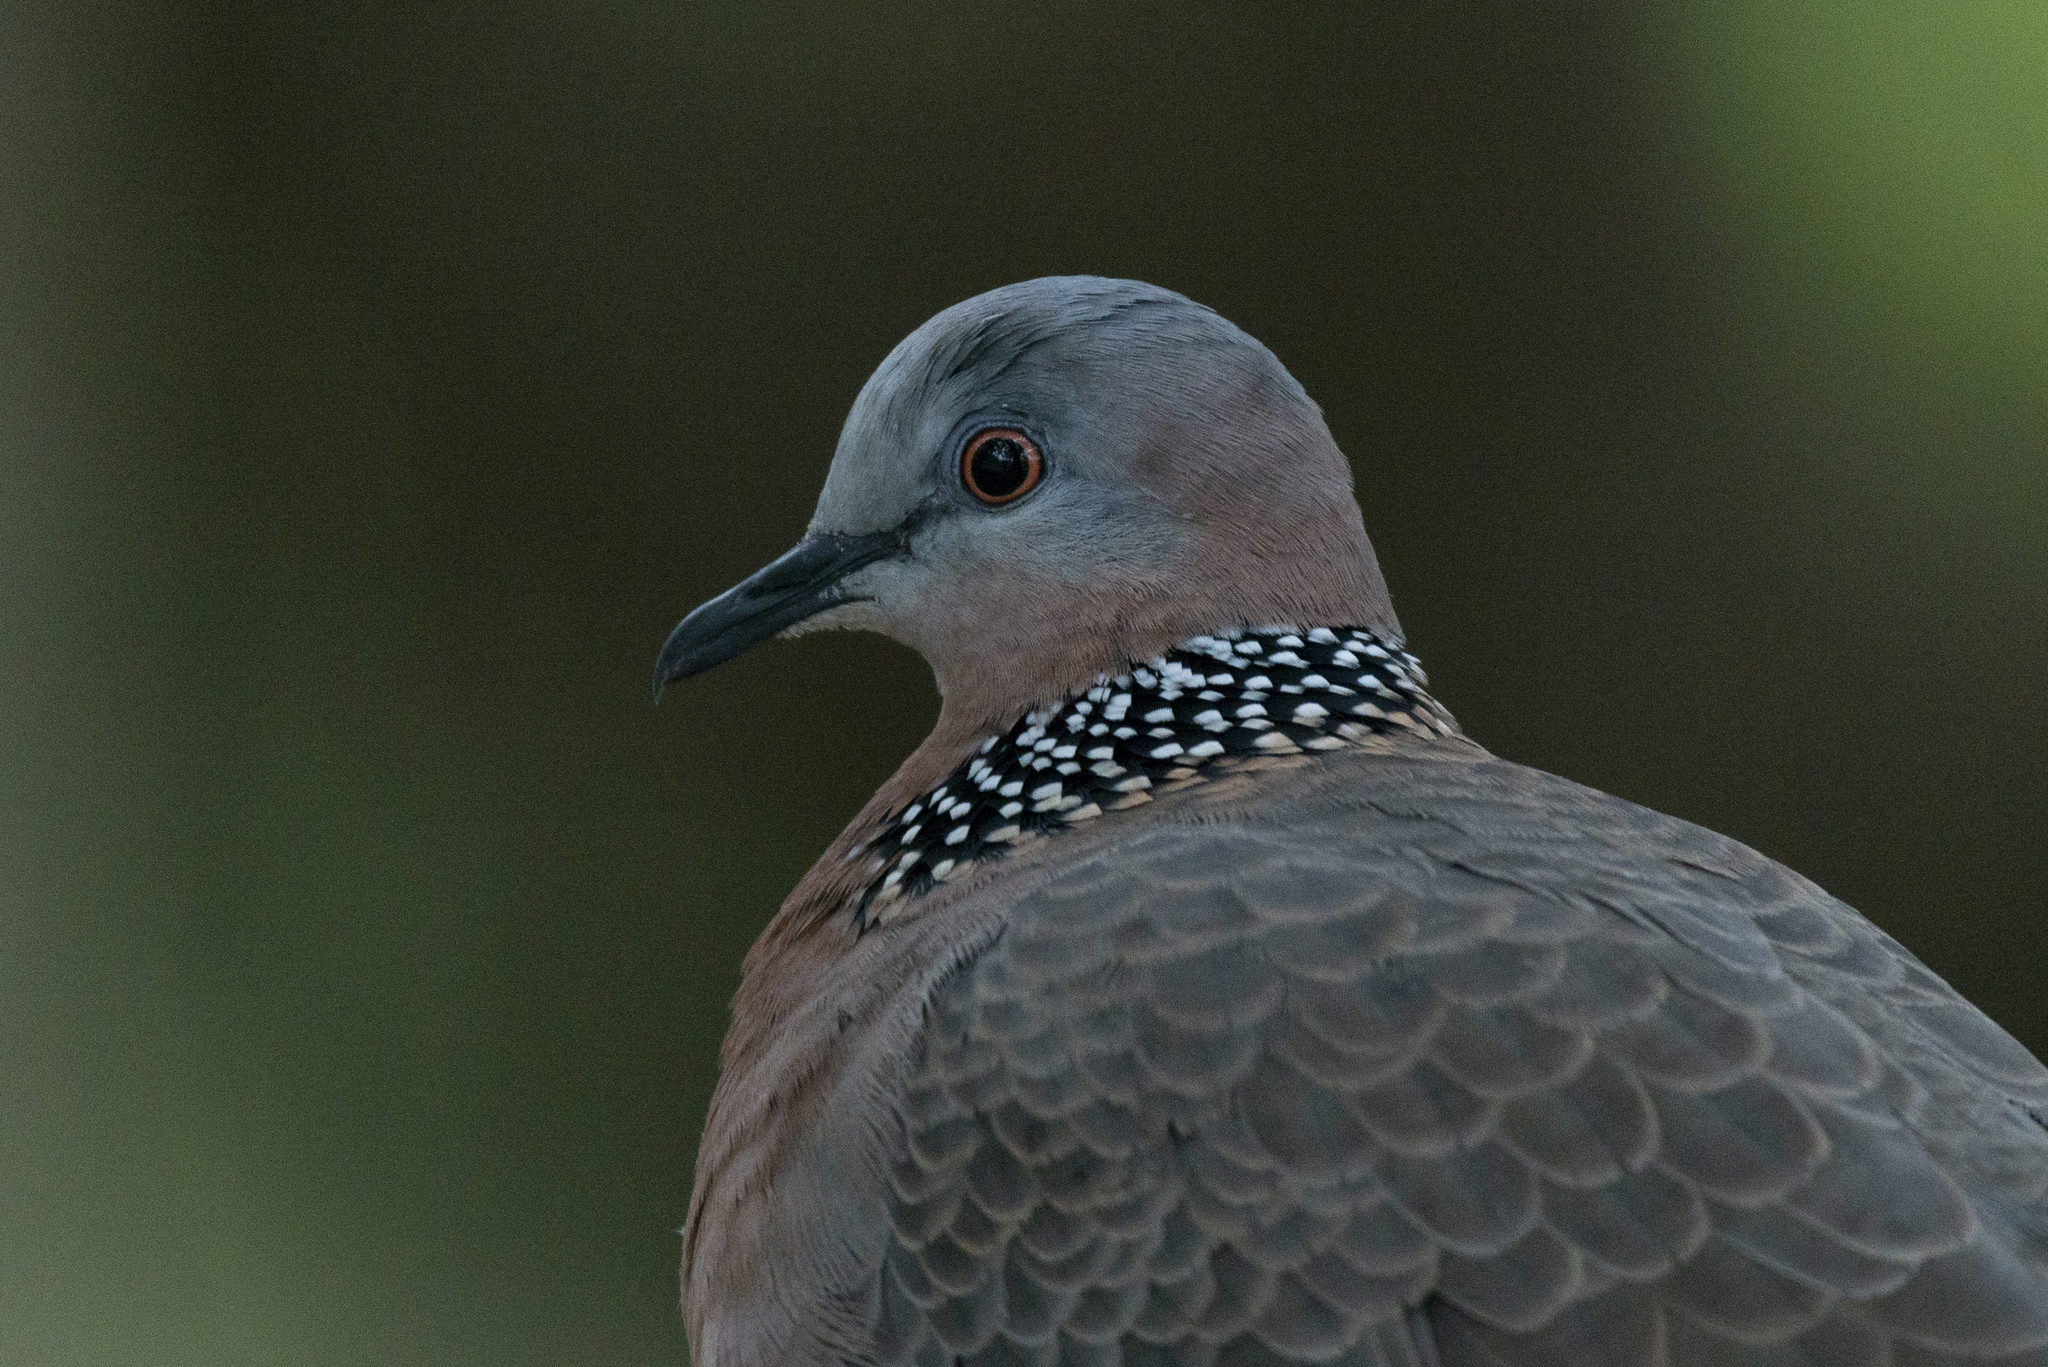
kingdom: Animalia
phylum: Chordata
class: Aves
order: Columbiformes
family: Columbidae
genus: Spilopelia
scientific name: Spilopelia chinensis
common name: Spotted dove
